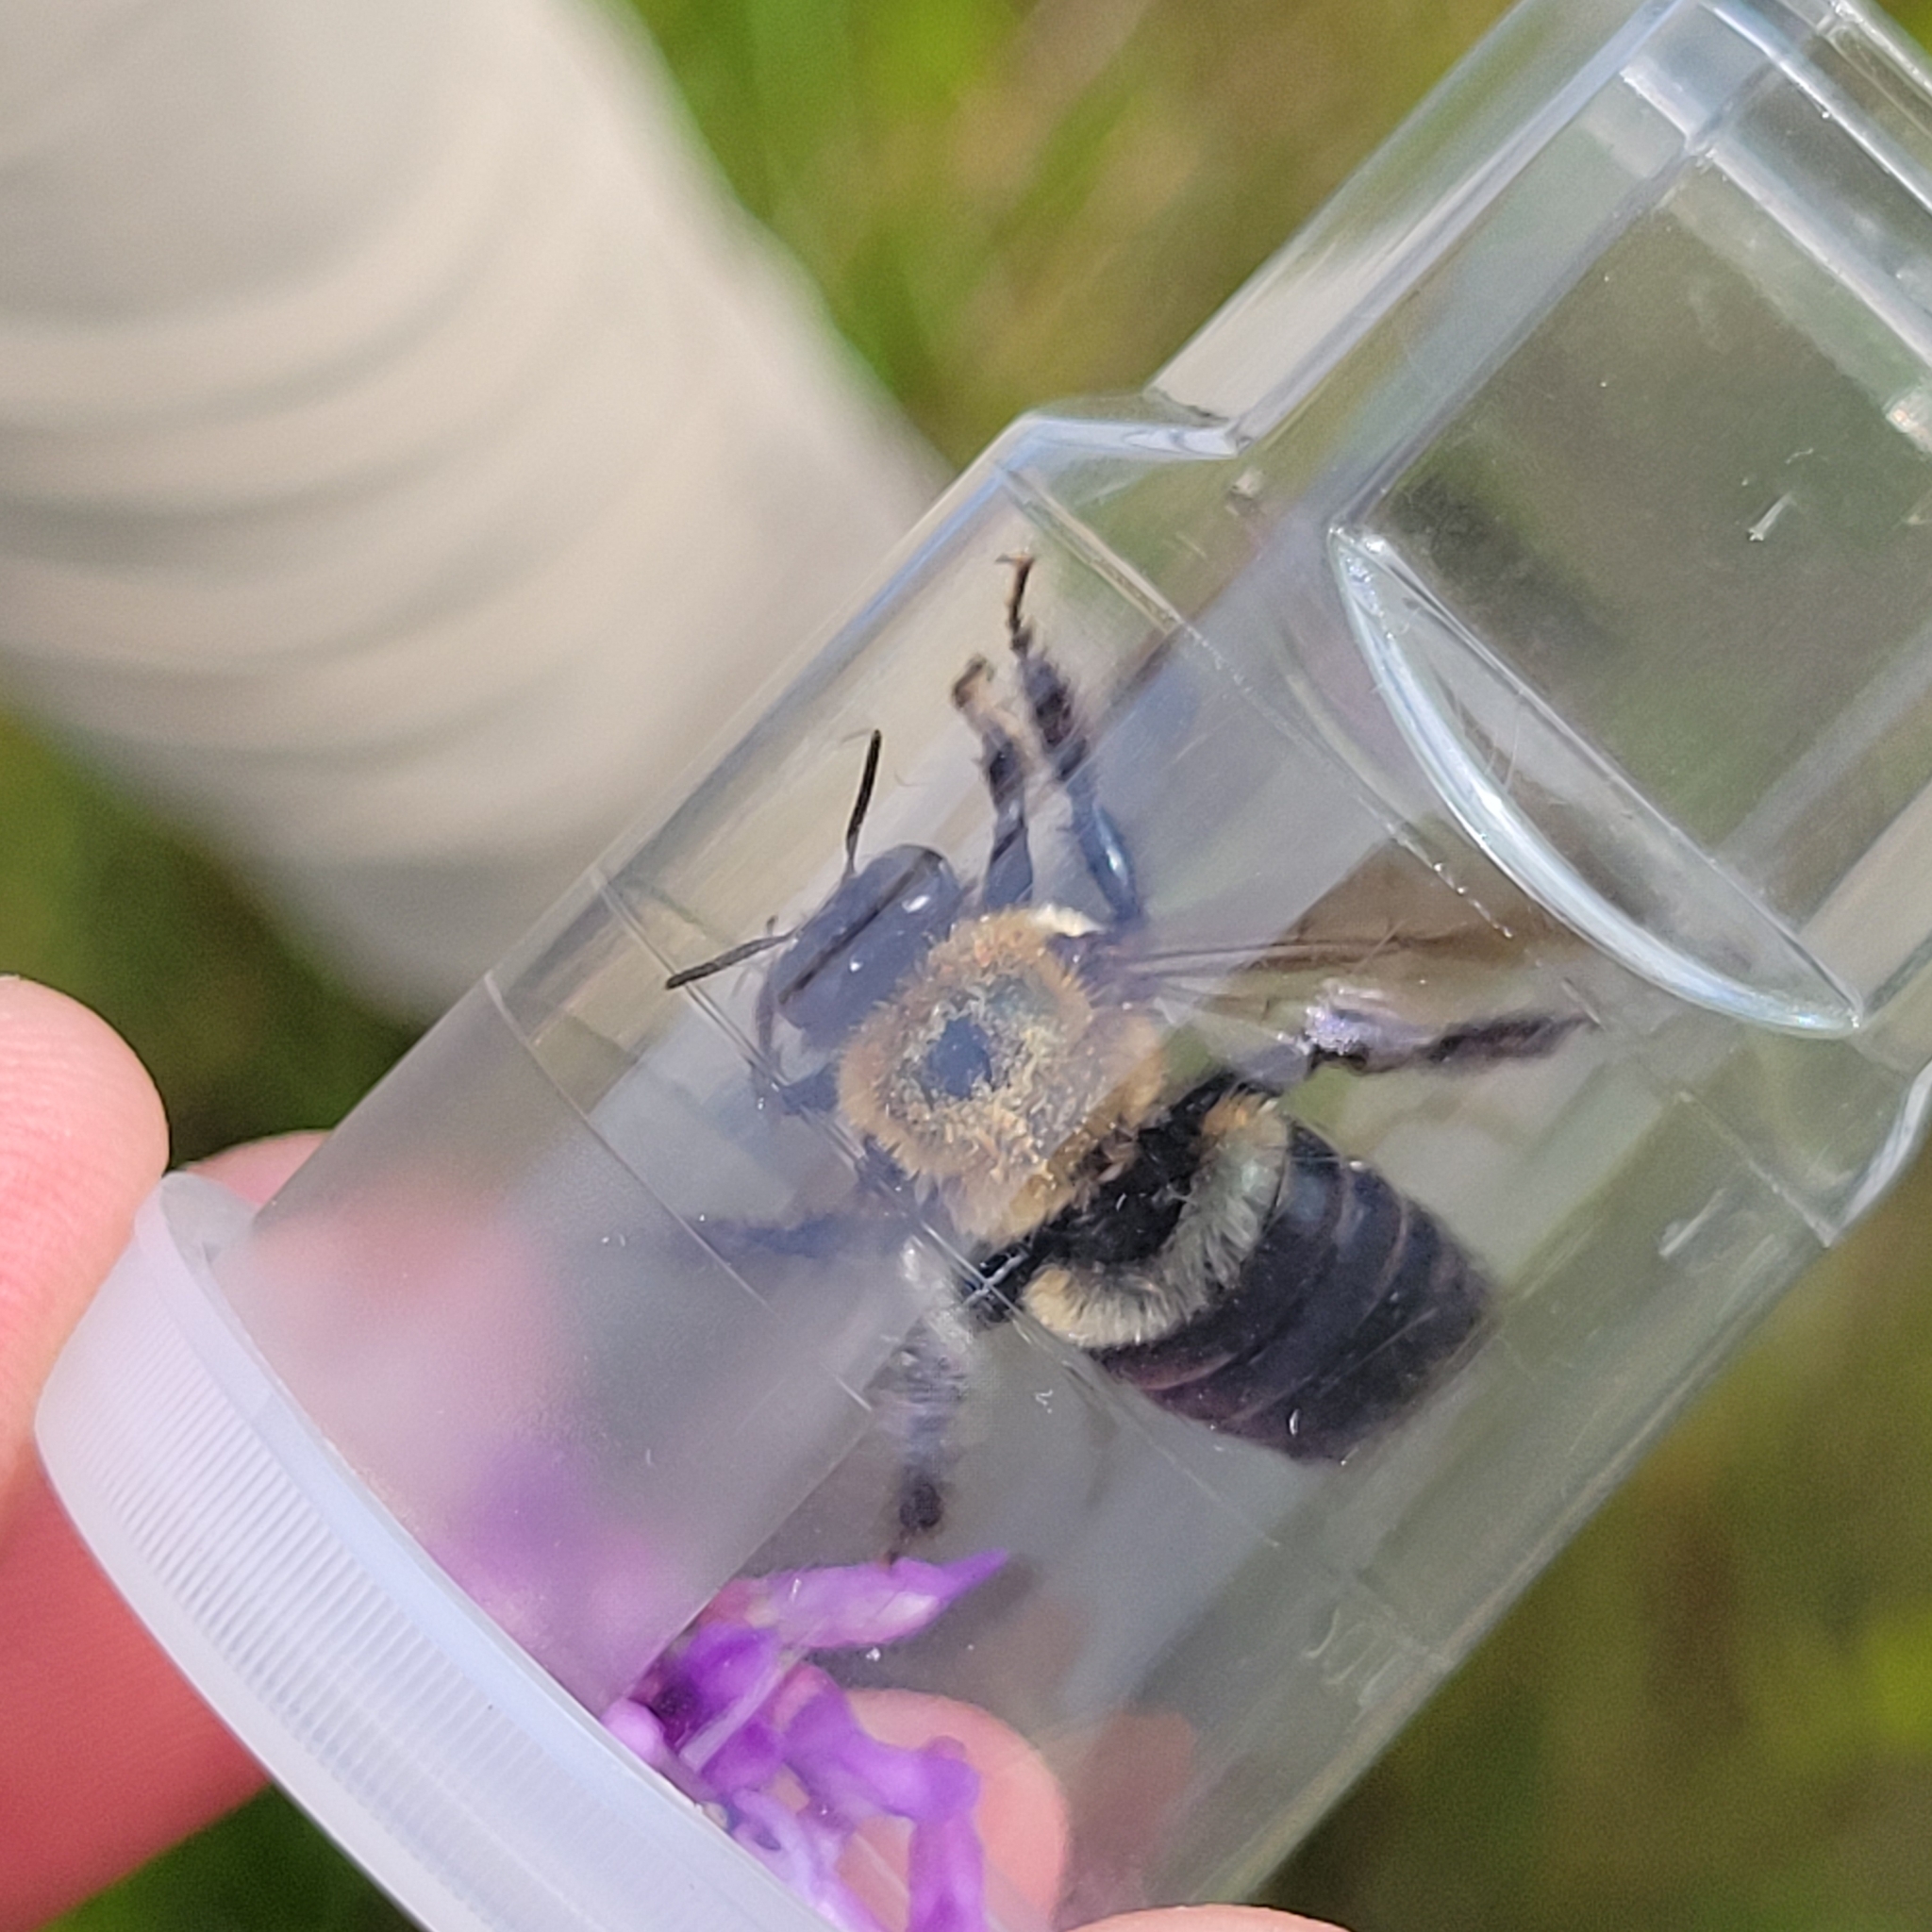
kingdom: Animalia
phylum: Arthropoda
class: Insecta
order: Hymenoptera
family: Apidae
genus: Xylocopa
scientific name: Xylocopa virginica
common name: Carpenter bee
